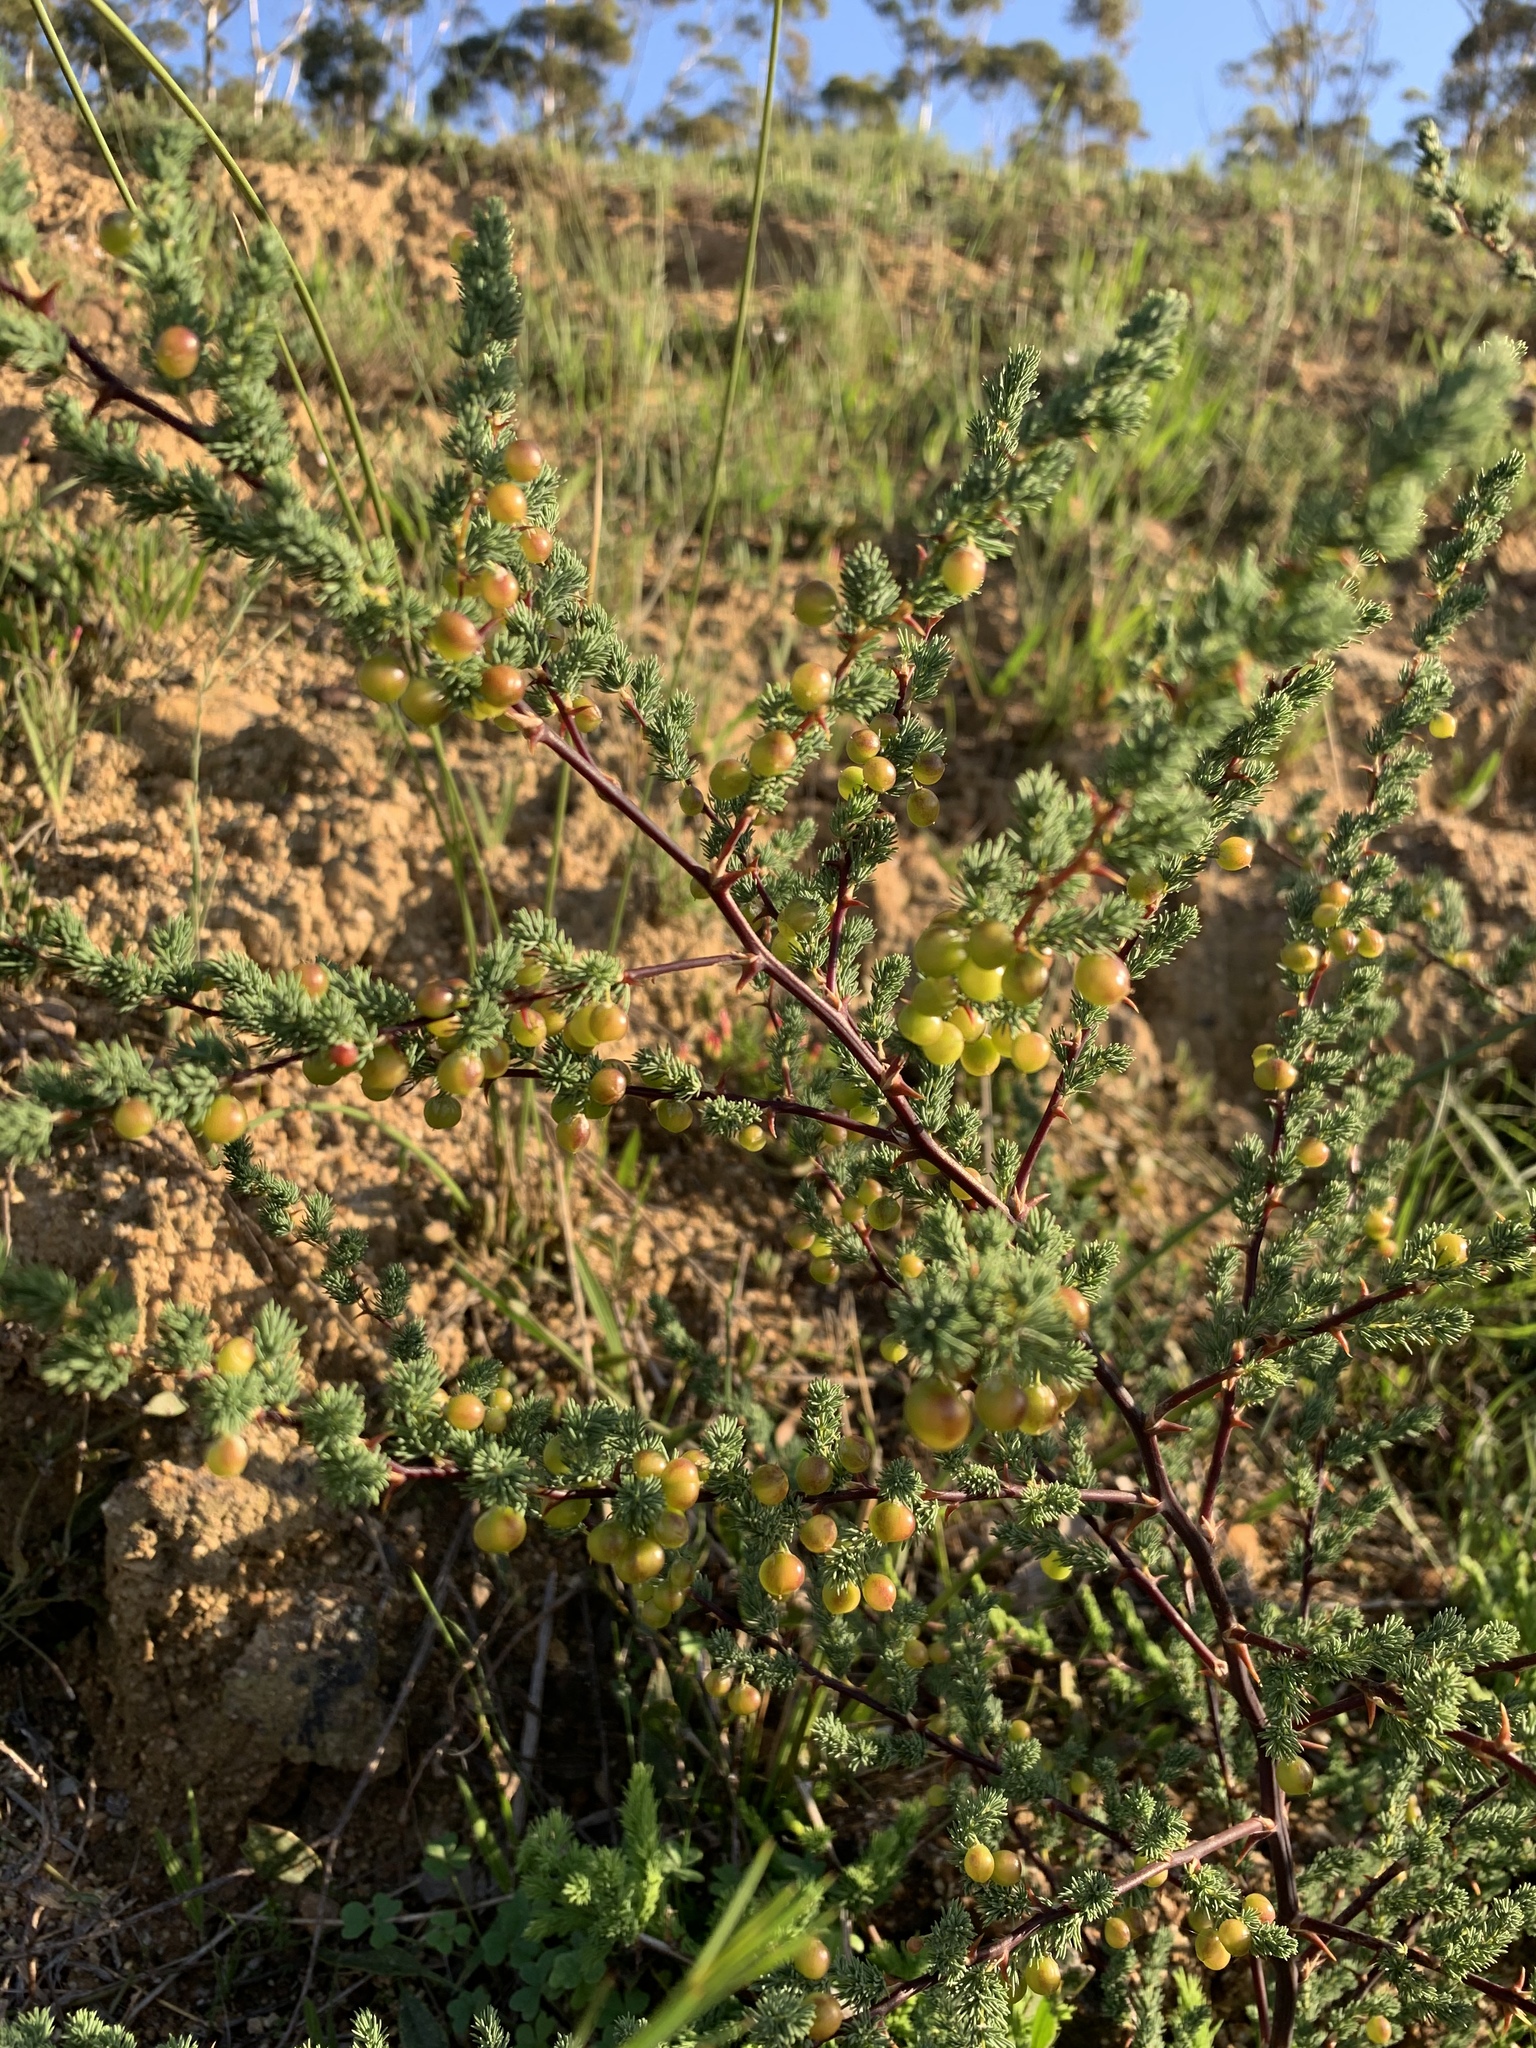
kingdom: Plantae
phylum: Tracheophyta
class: Liliopsida
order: Asparagales
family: Asparagaceae
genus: Asparagus
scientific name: Asparagus rubicundus
